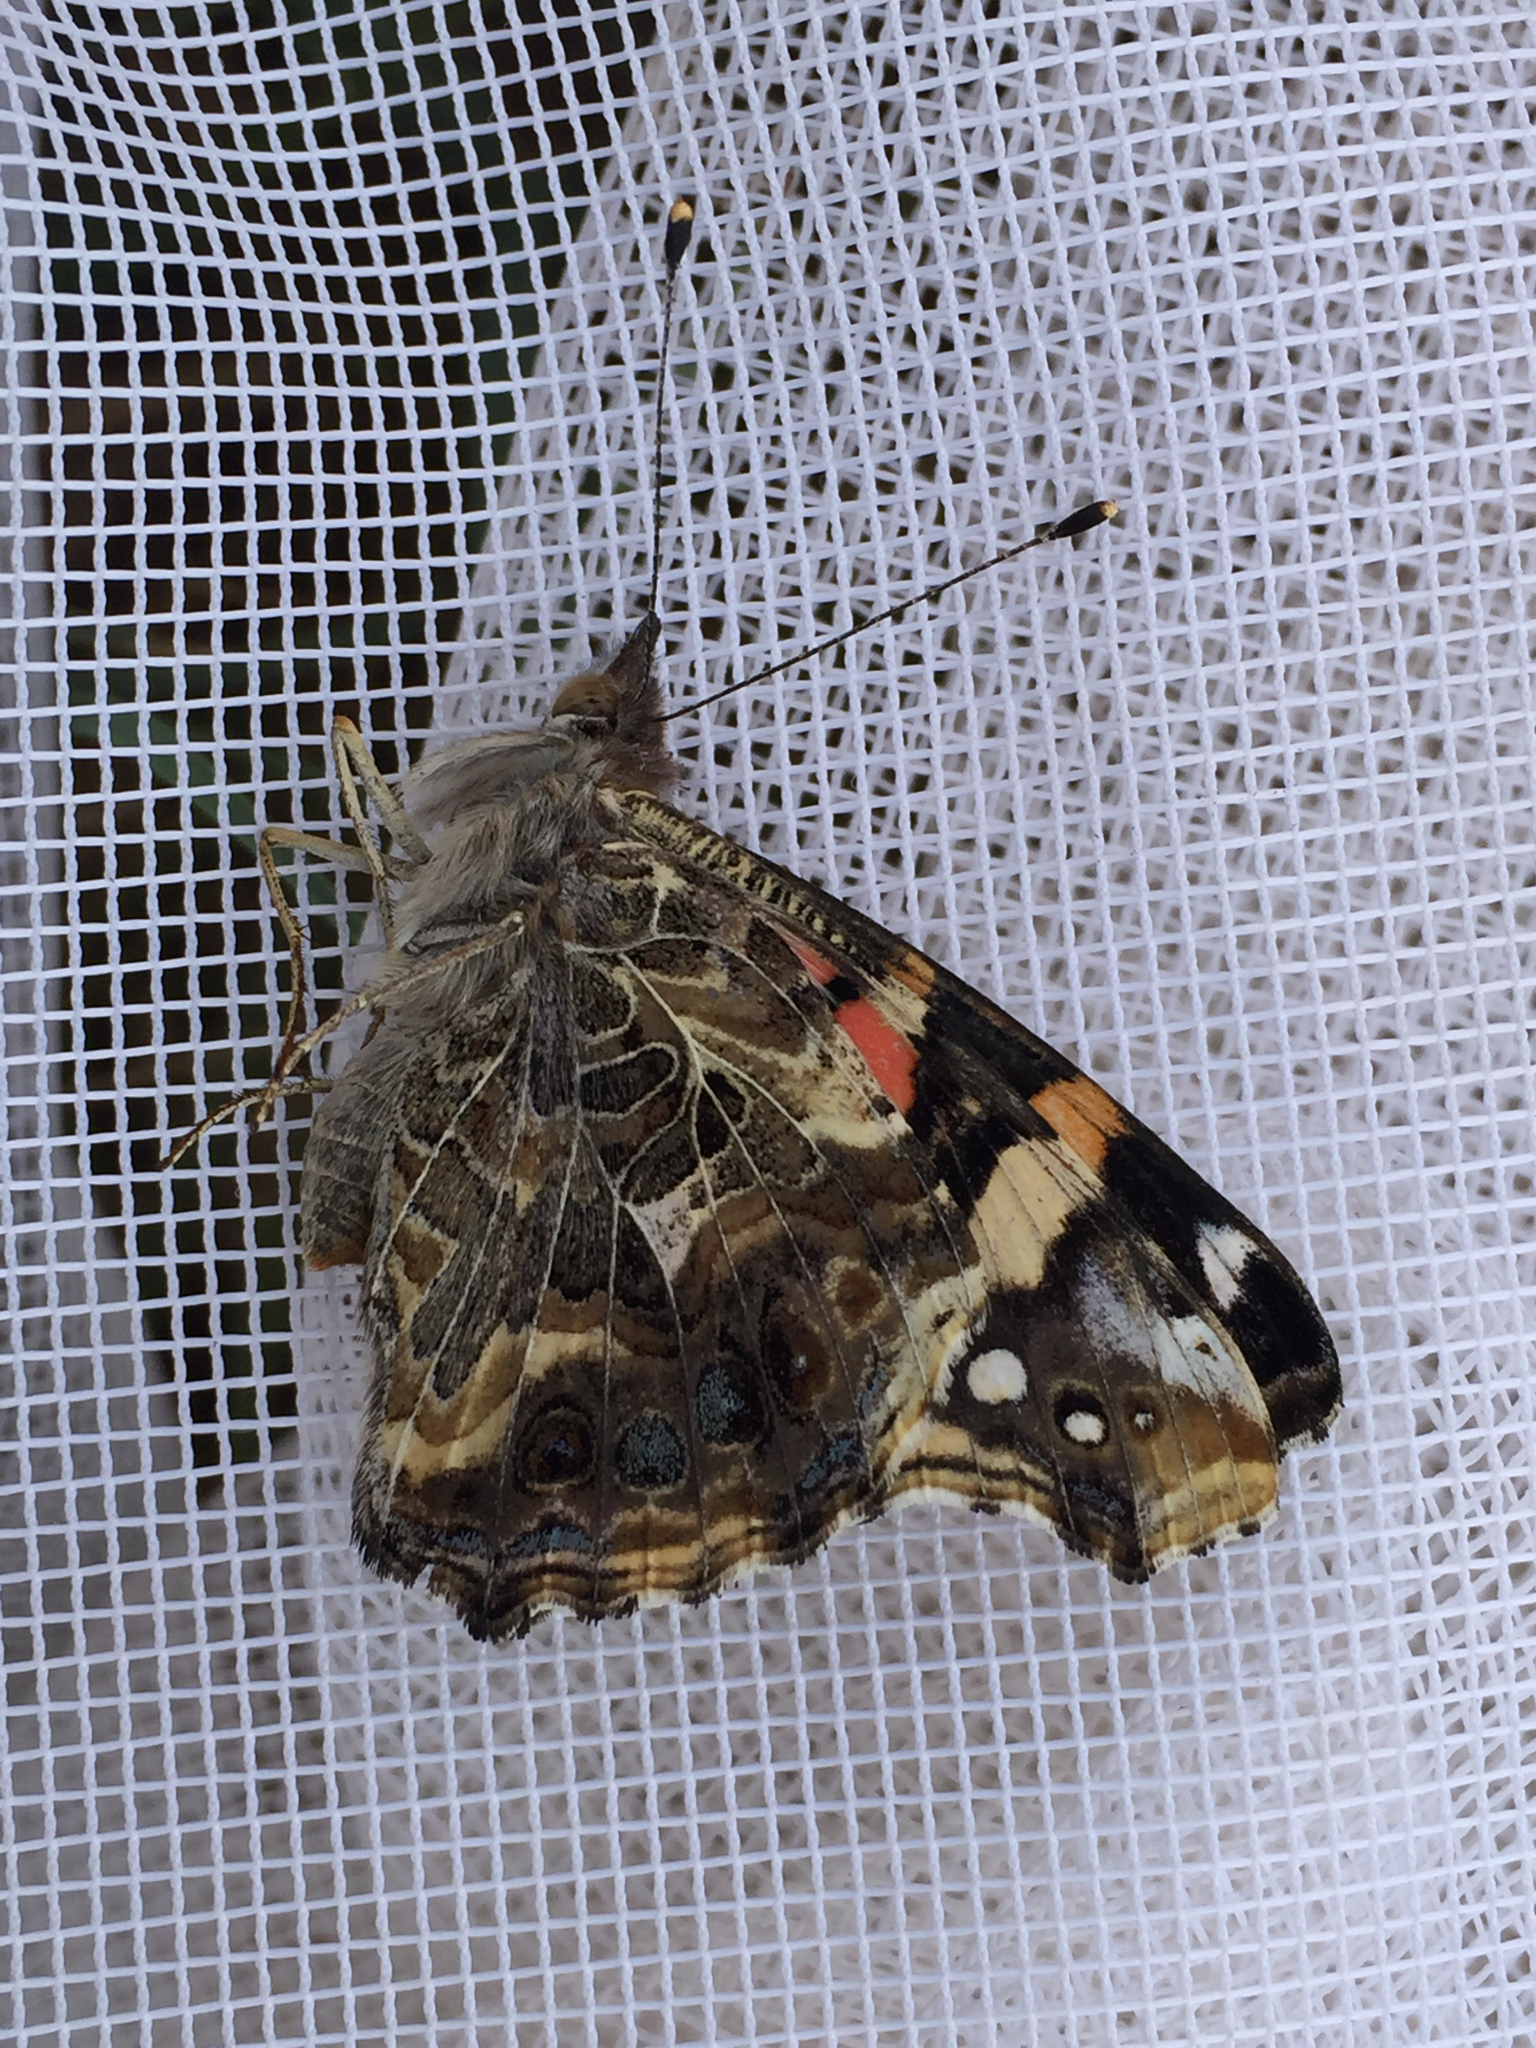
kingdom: Animalia
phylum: Arthropoda
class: Insecta
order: Lepidoptera
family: Nymphalidae
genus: Vanessa
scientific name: Vanessa annabella
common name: West coast lady
